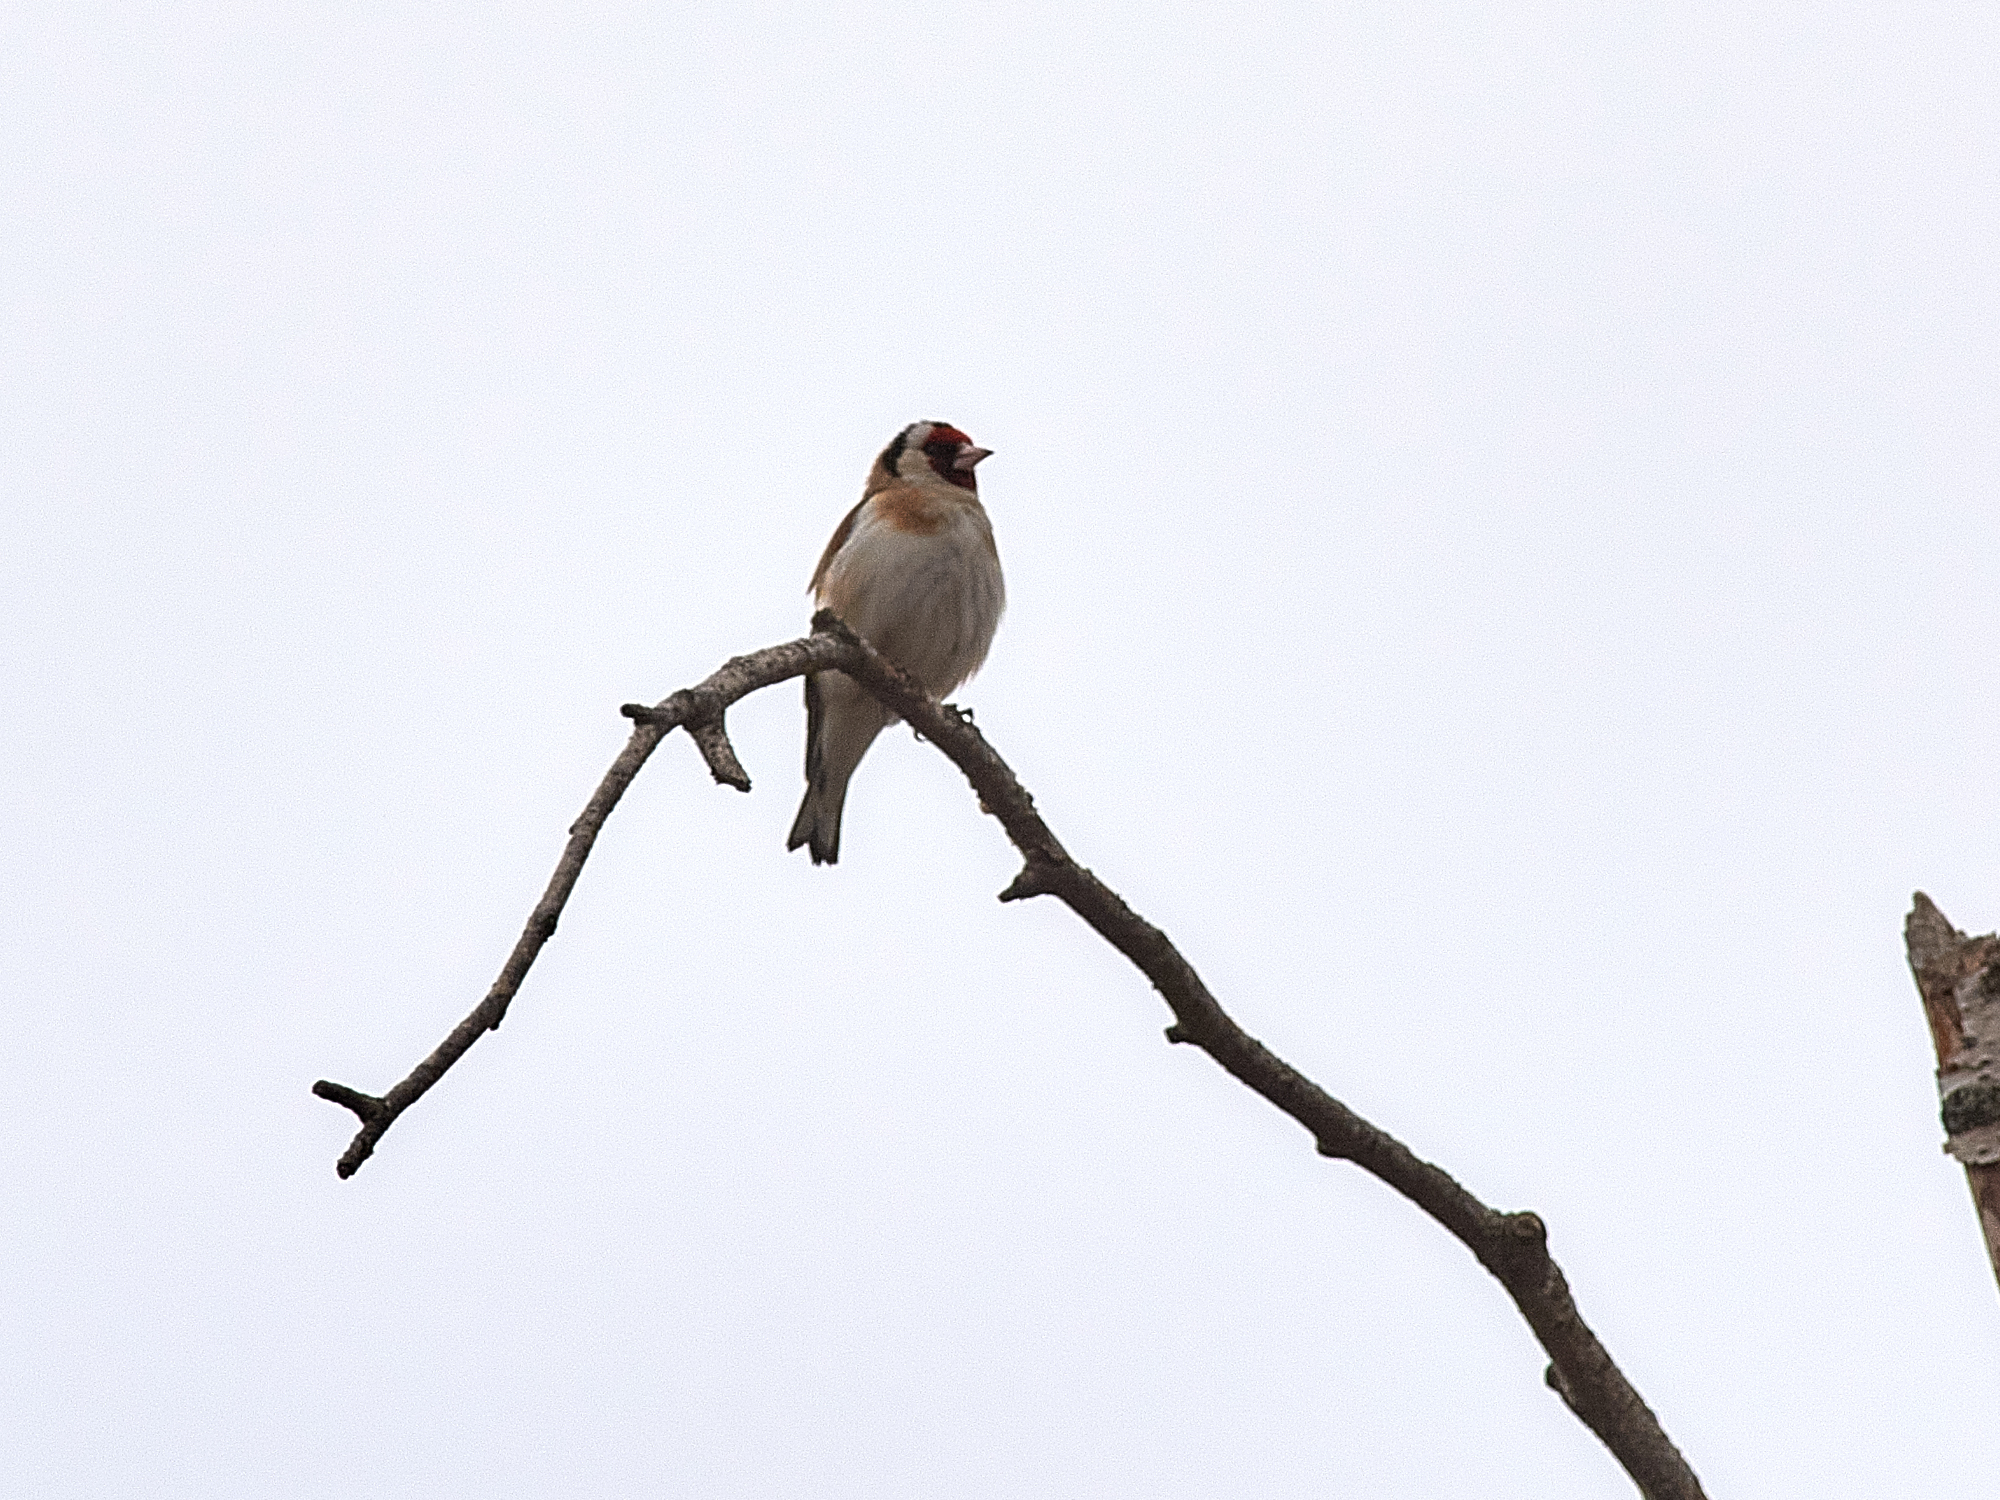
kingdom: Animalia
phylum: Chordata
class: Aves
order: Passeriformes
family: Fringillidae
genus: Carduelis
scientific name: Carduelis carduelis
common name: European goldfinch
